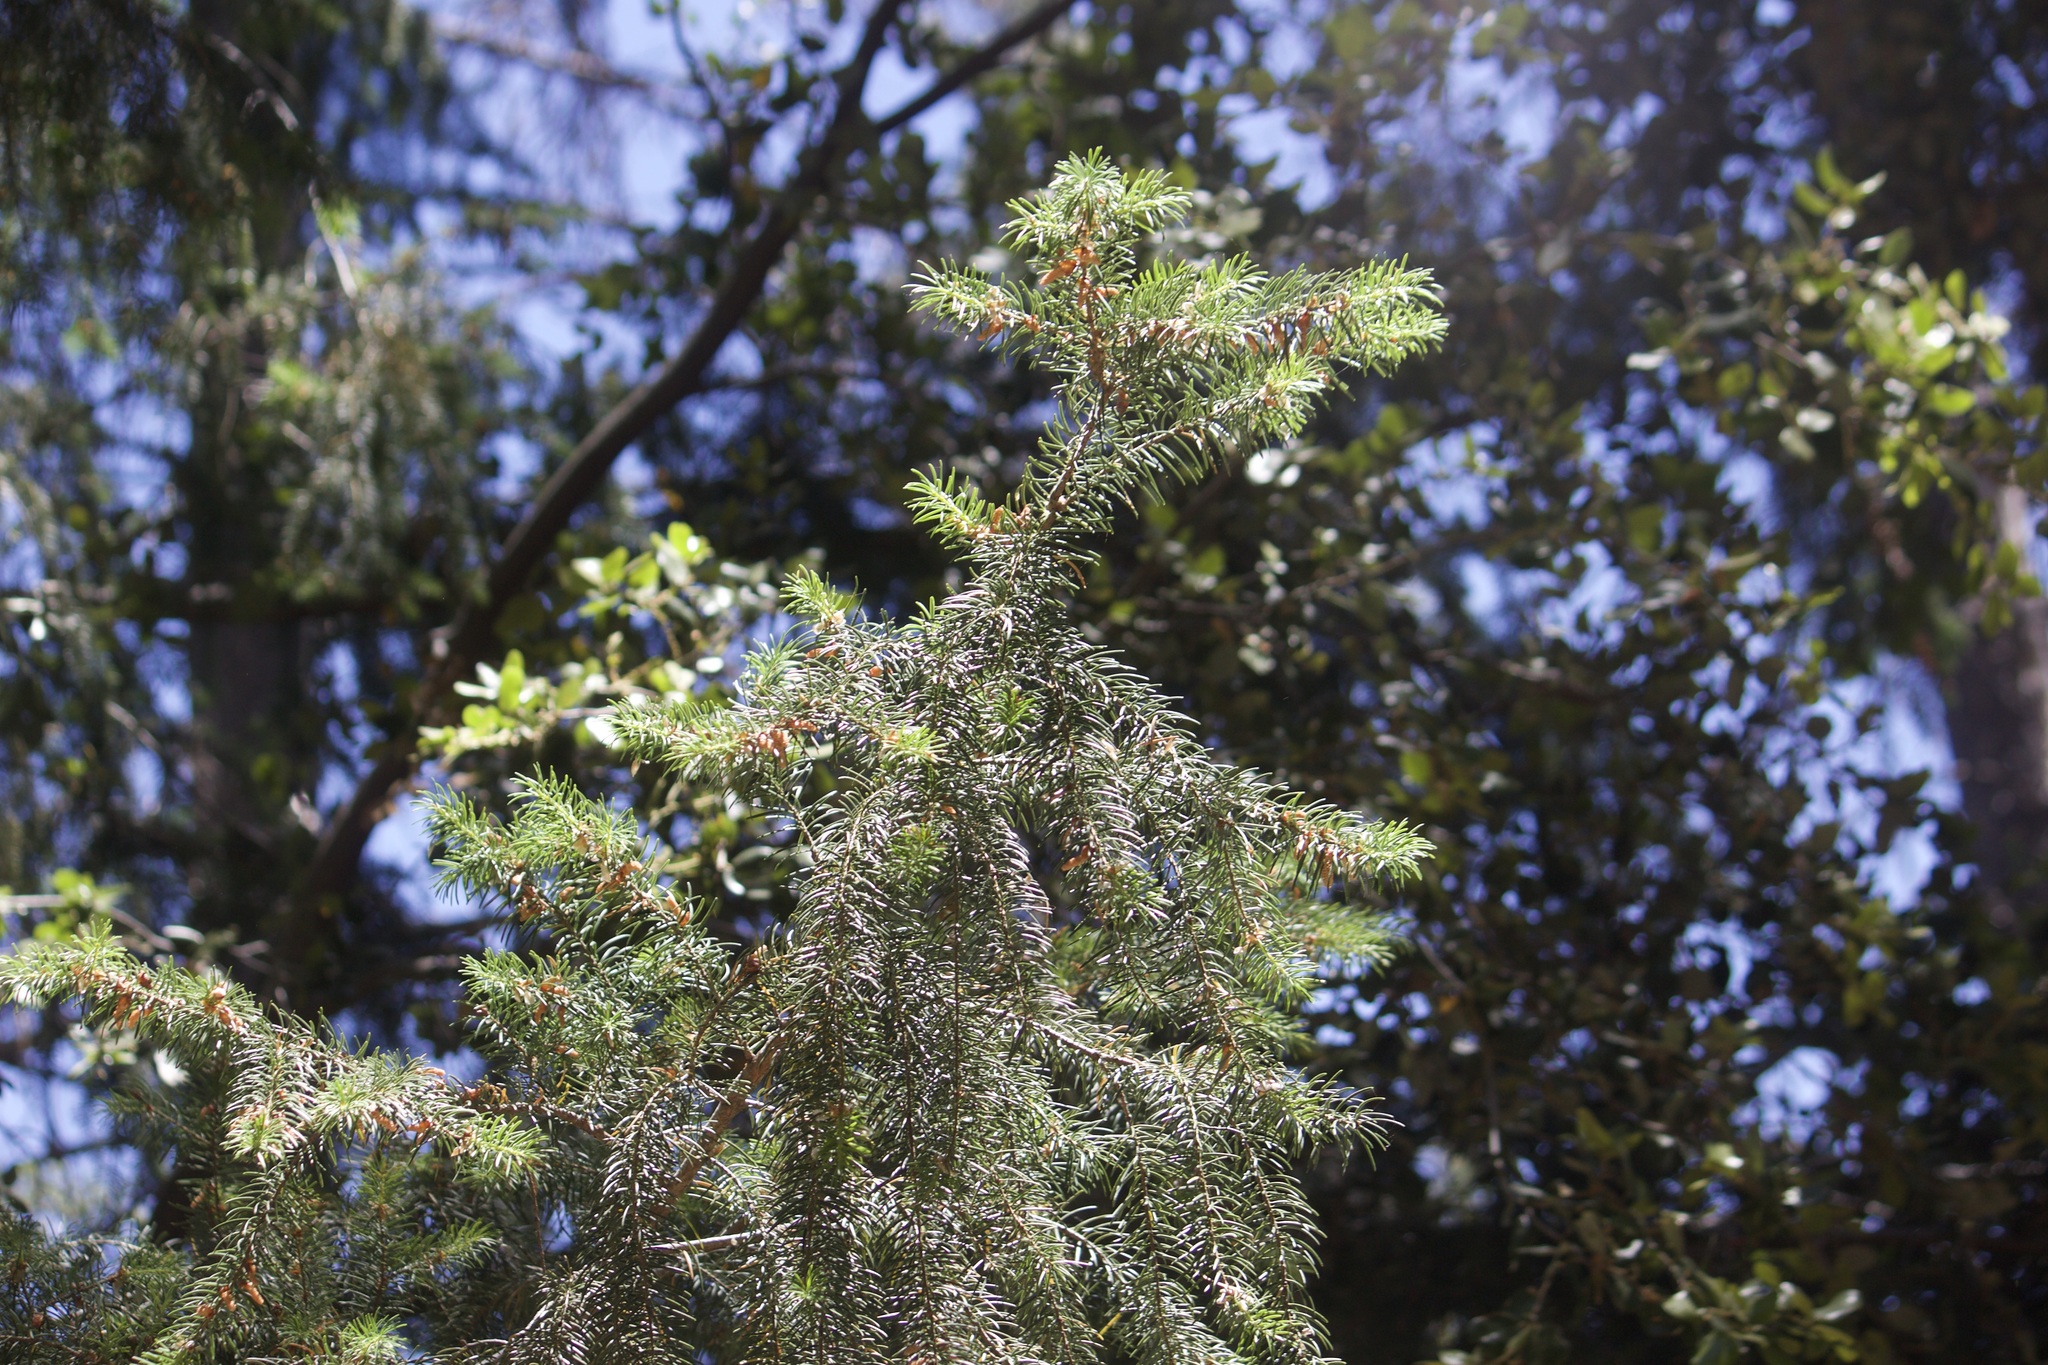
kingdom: Plantae
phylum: Tracheophyta
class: Pinopsida
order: Pinales
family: Pinaceae
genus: Pseudotsuga
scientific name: Pseudotsuga macrocarpa
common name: Big-cone douglas-fir
